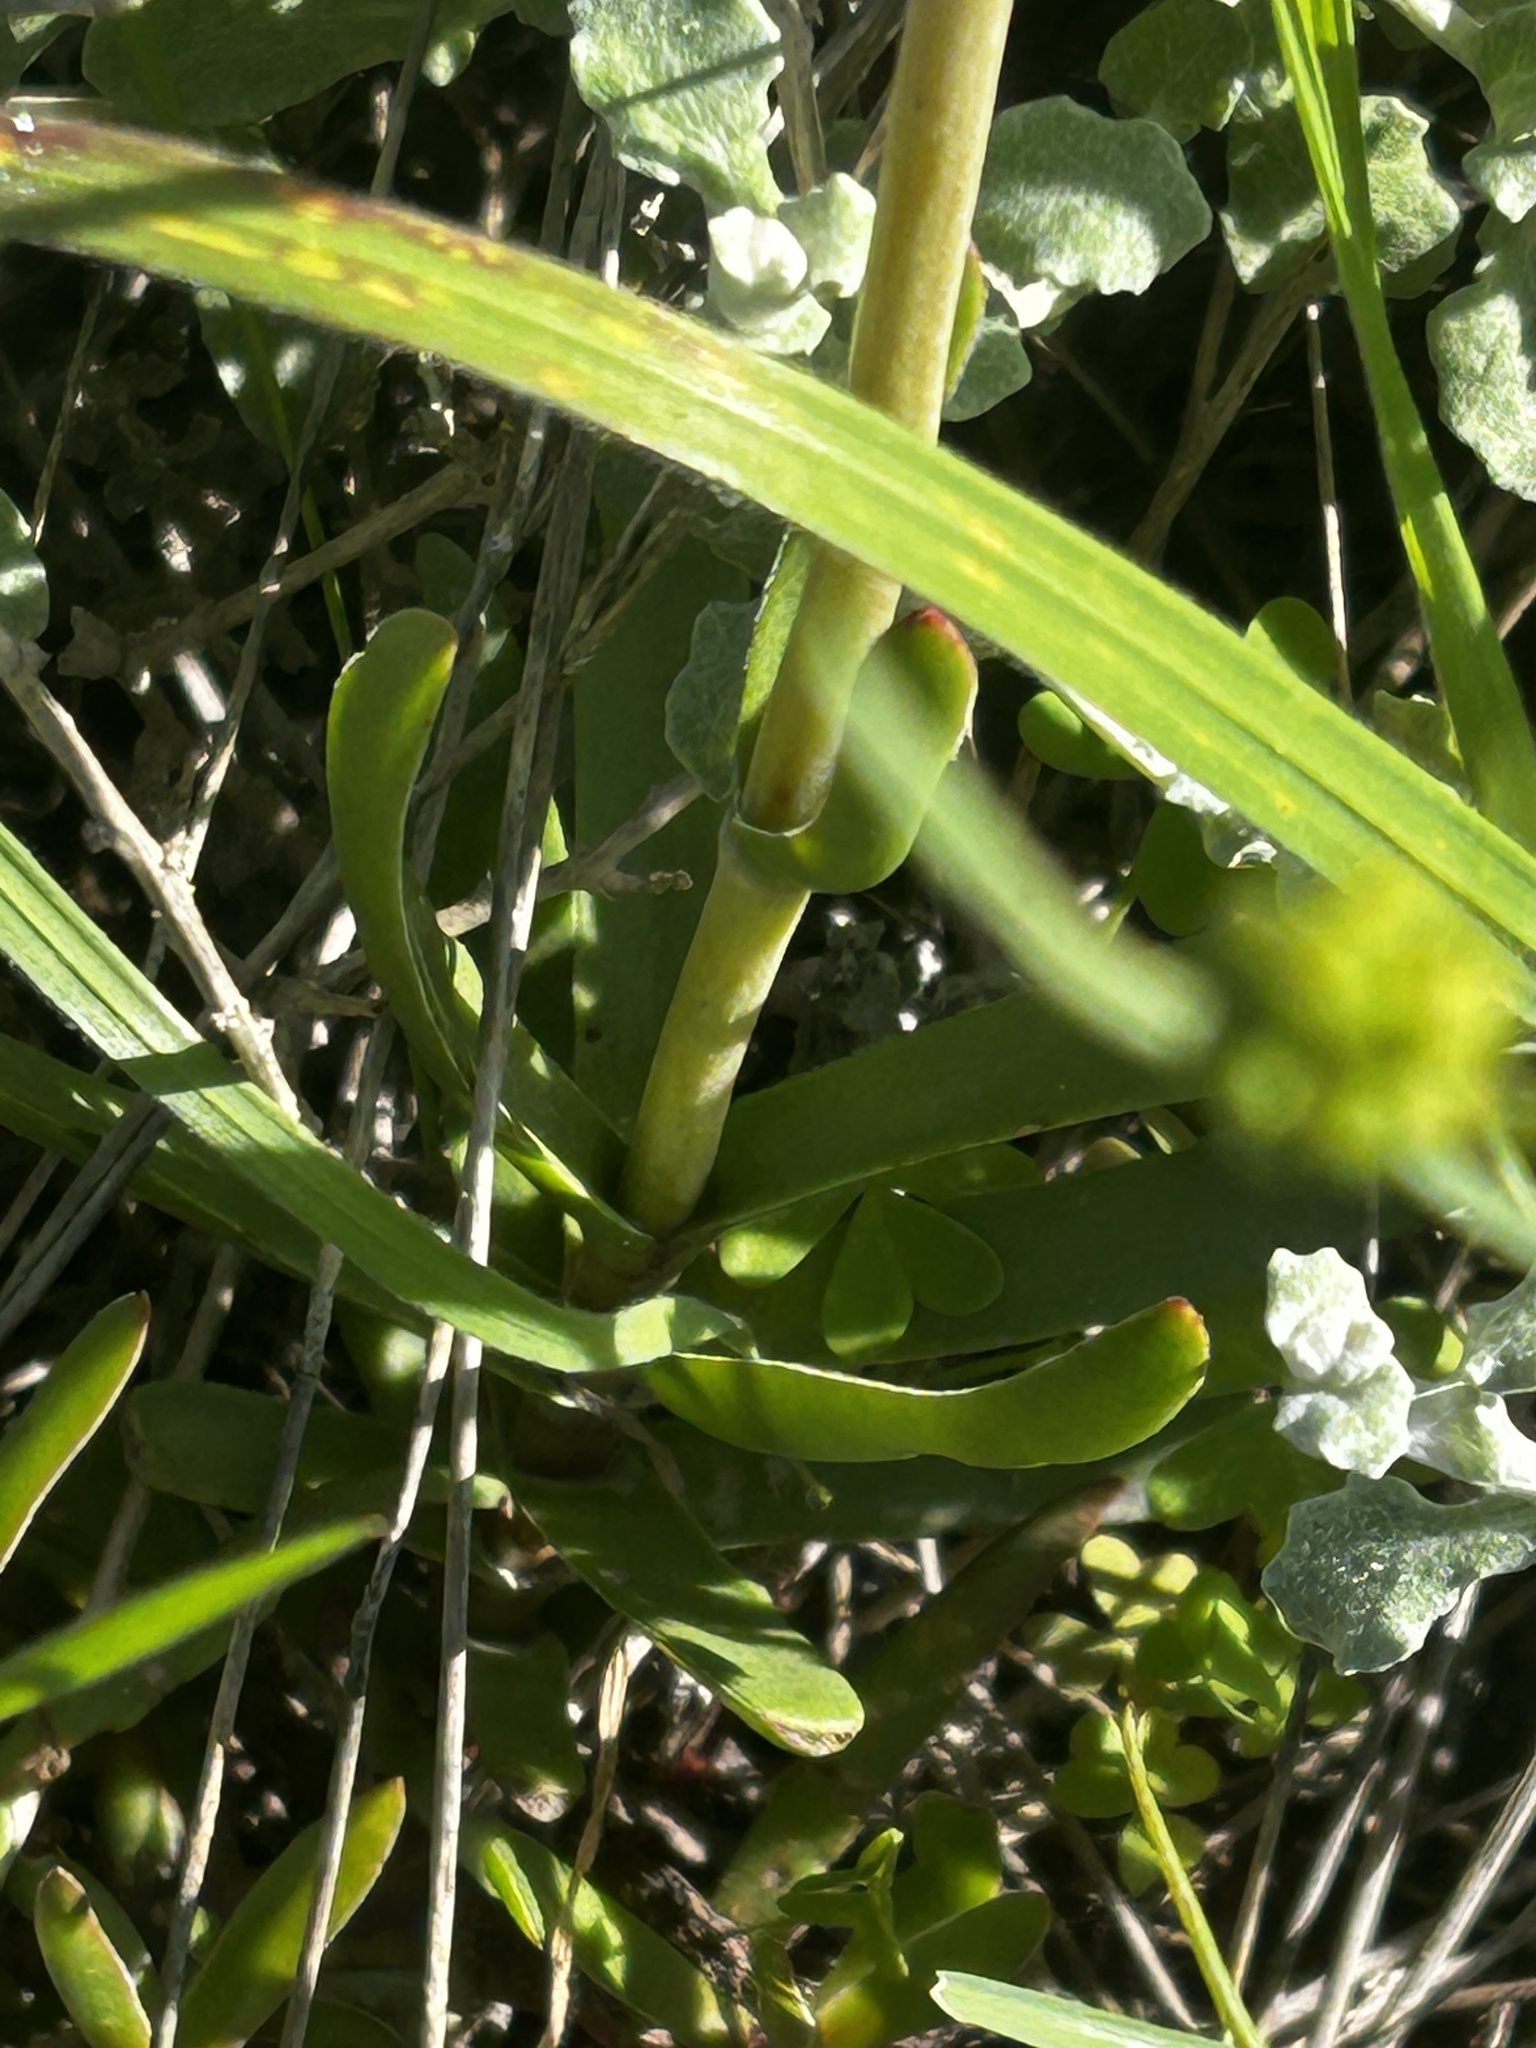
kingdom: Plantae
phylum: Tracheophyta
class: Magnoliopsida
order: Saxifragales
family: Crassulaceae
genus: Crassula
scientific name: Crassula nudicaulis
